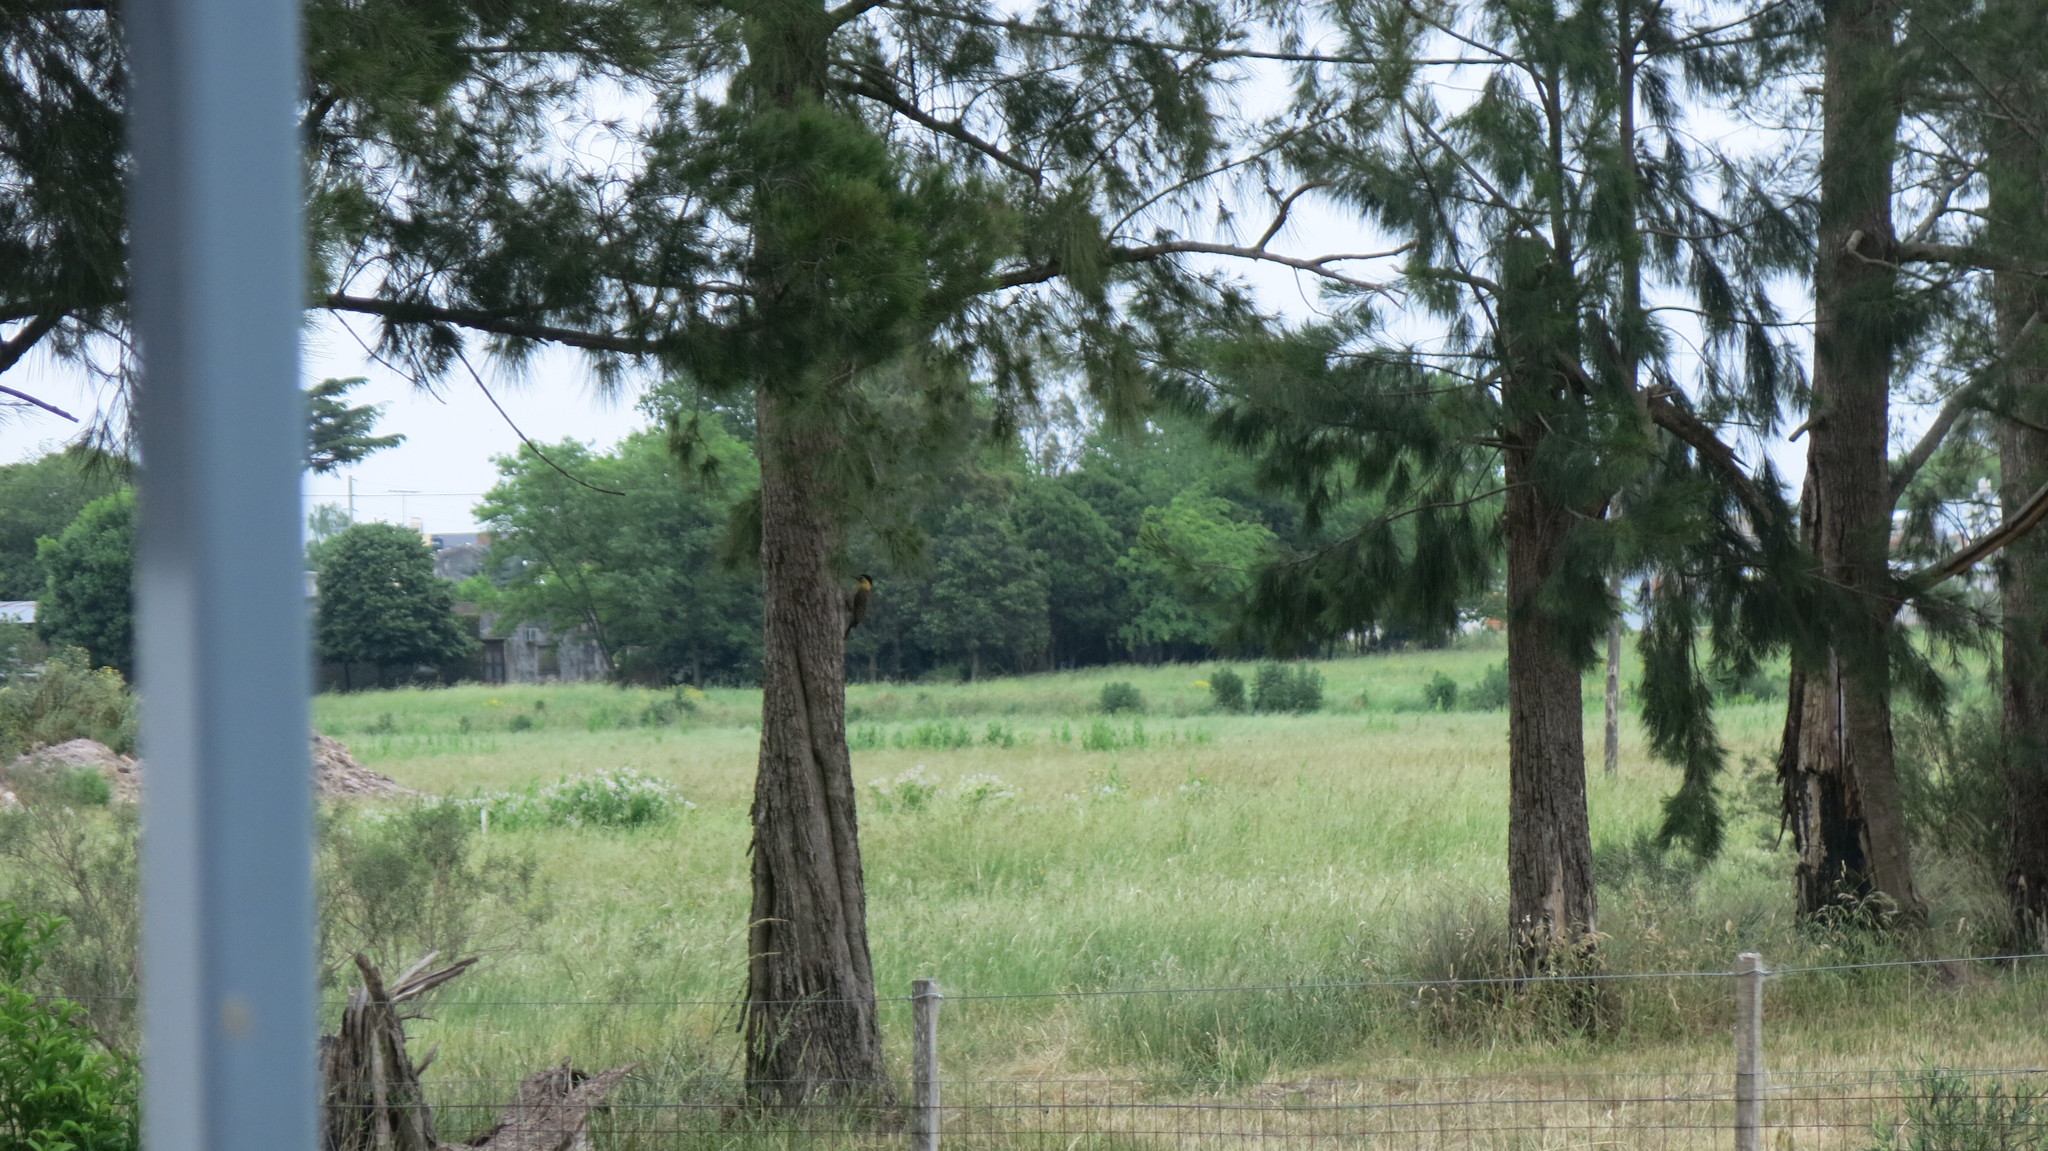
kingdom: Animalia
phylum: Chordata
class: Aves
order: Piciformes
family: Picidae
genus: Colaptes
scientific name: Colaptes campestris
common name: Campo flicker
